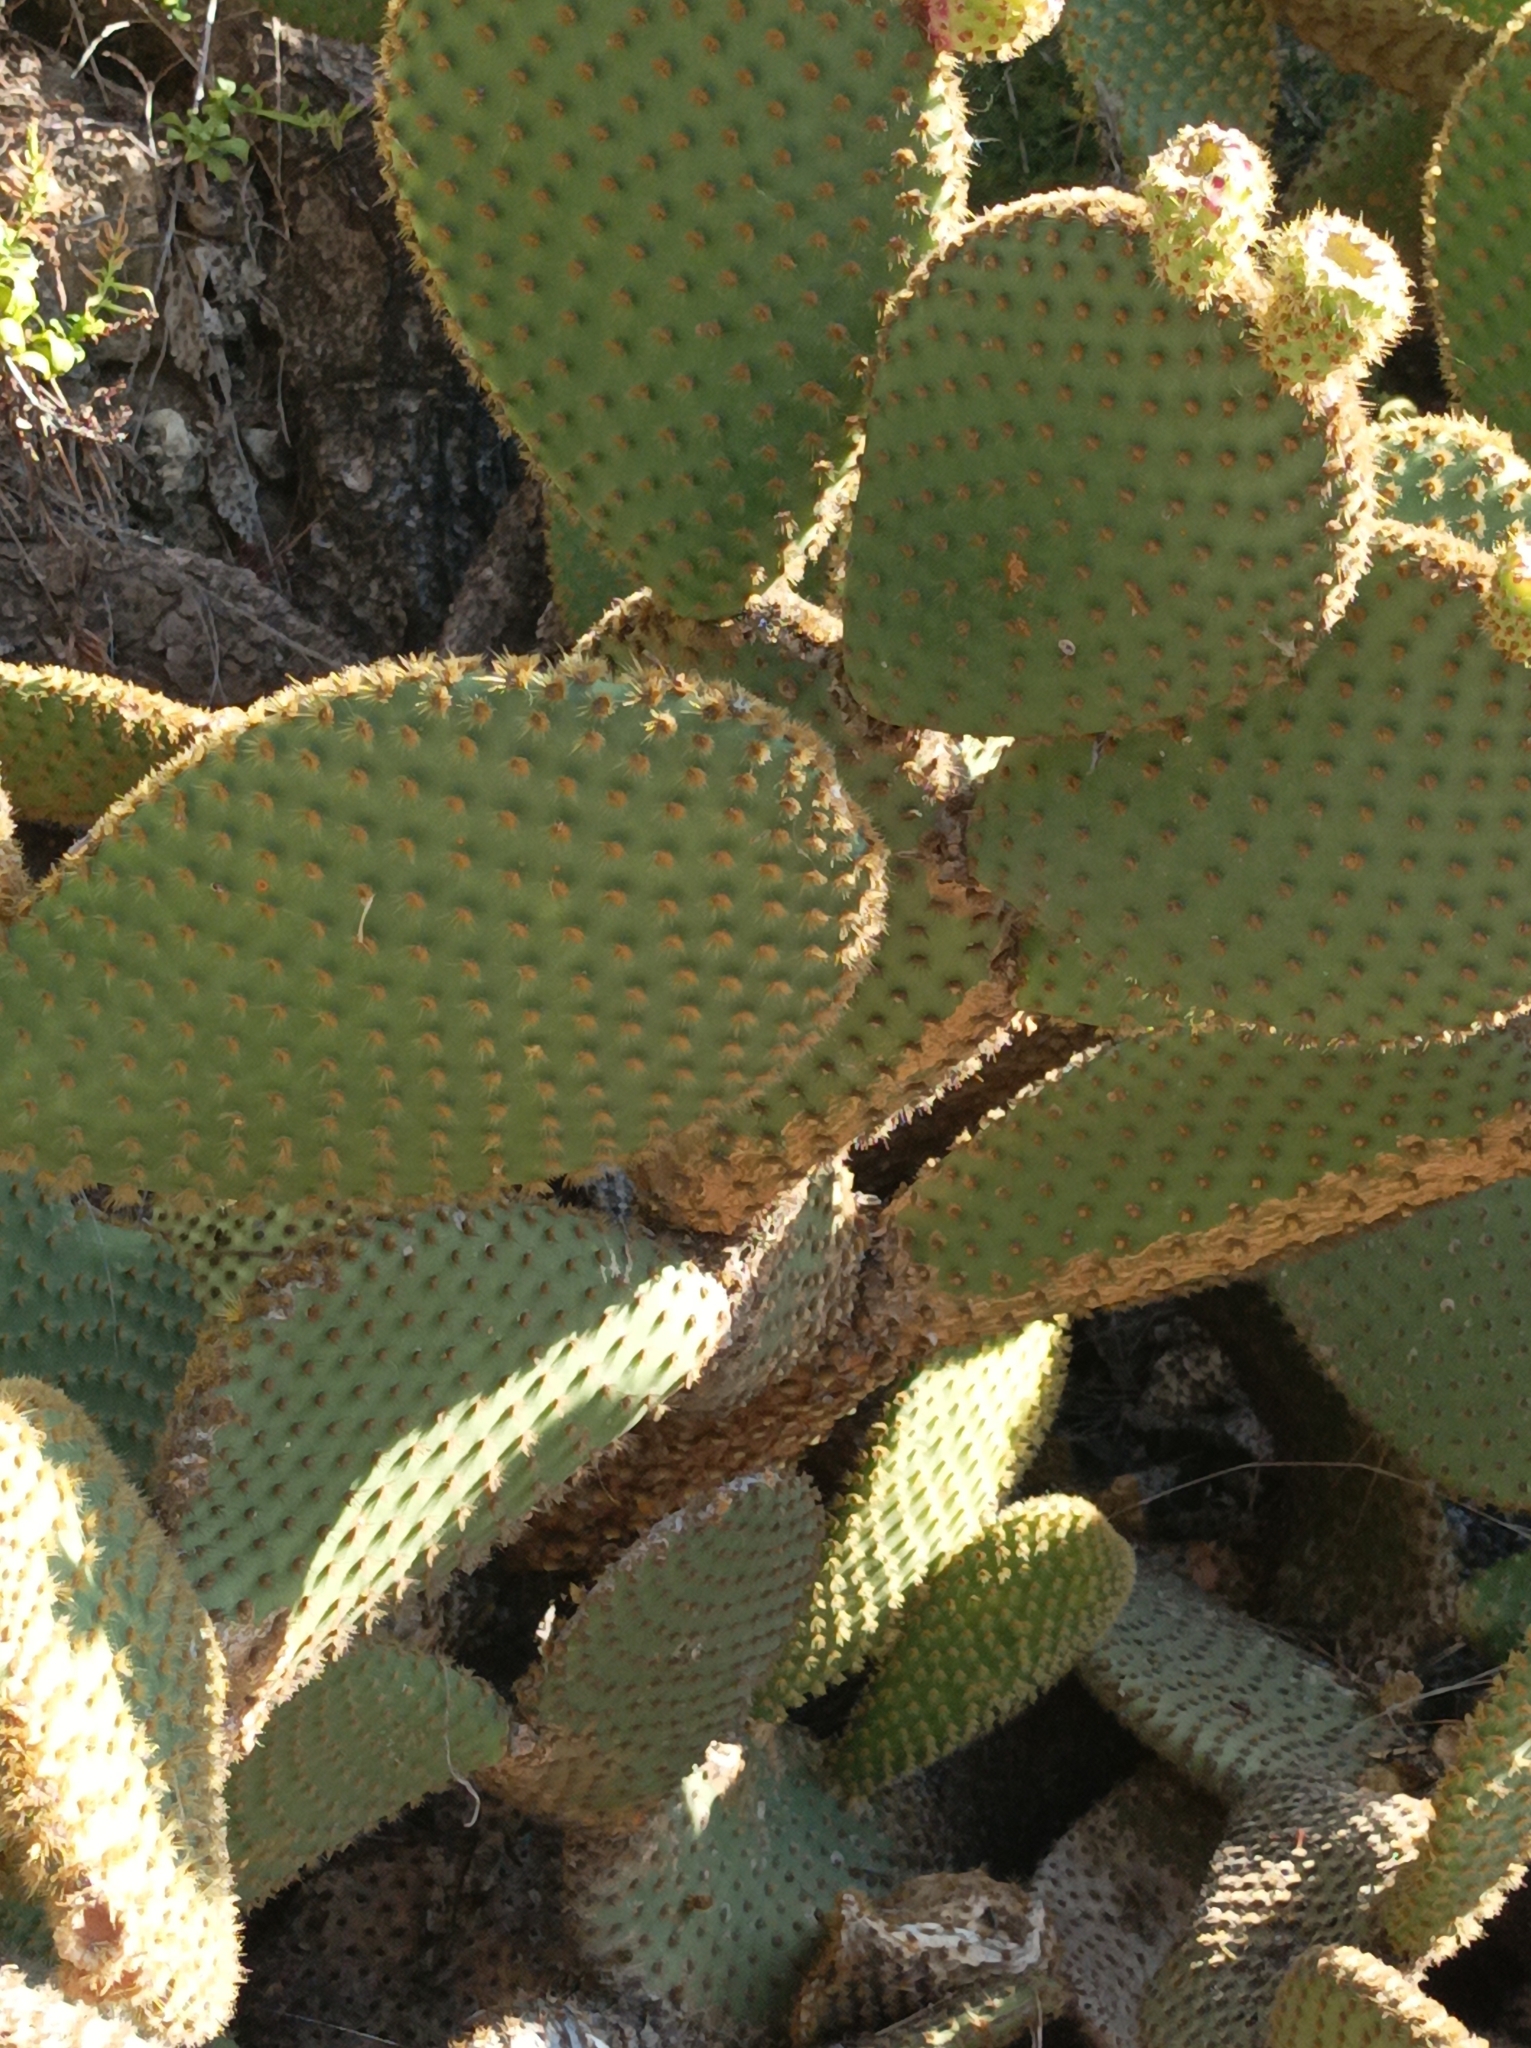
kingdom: Plantae
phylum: Tracheophyta
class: Magnoliopsida
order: Caryophyllales
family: Cactaceae
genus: Opuntia
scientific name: Opuntia microdasys
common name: Angel's-wings
